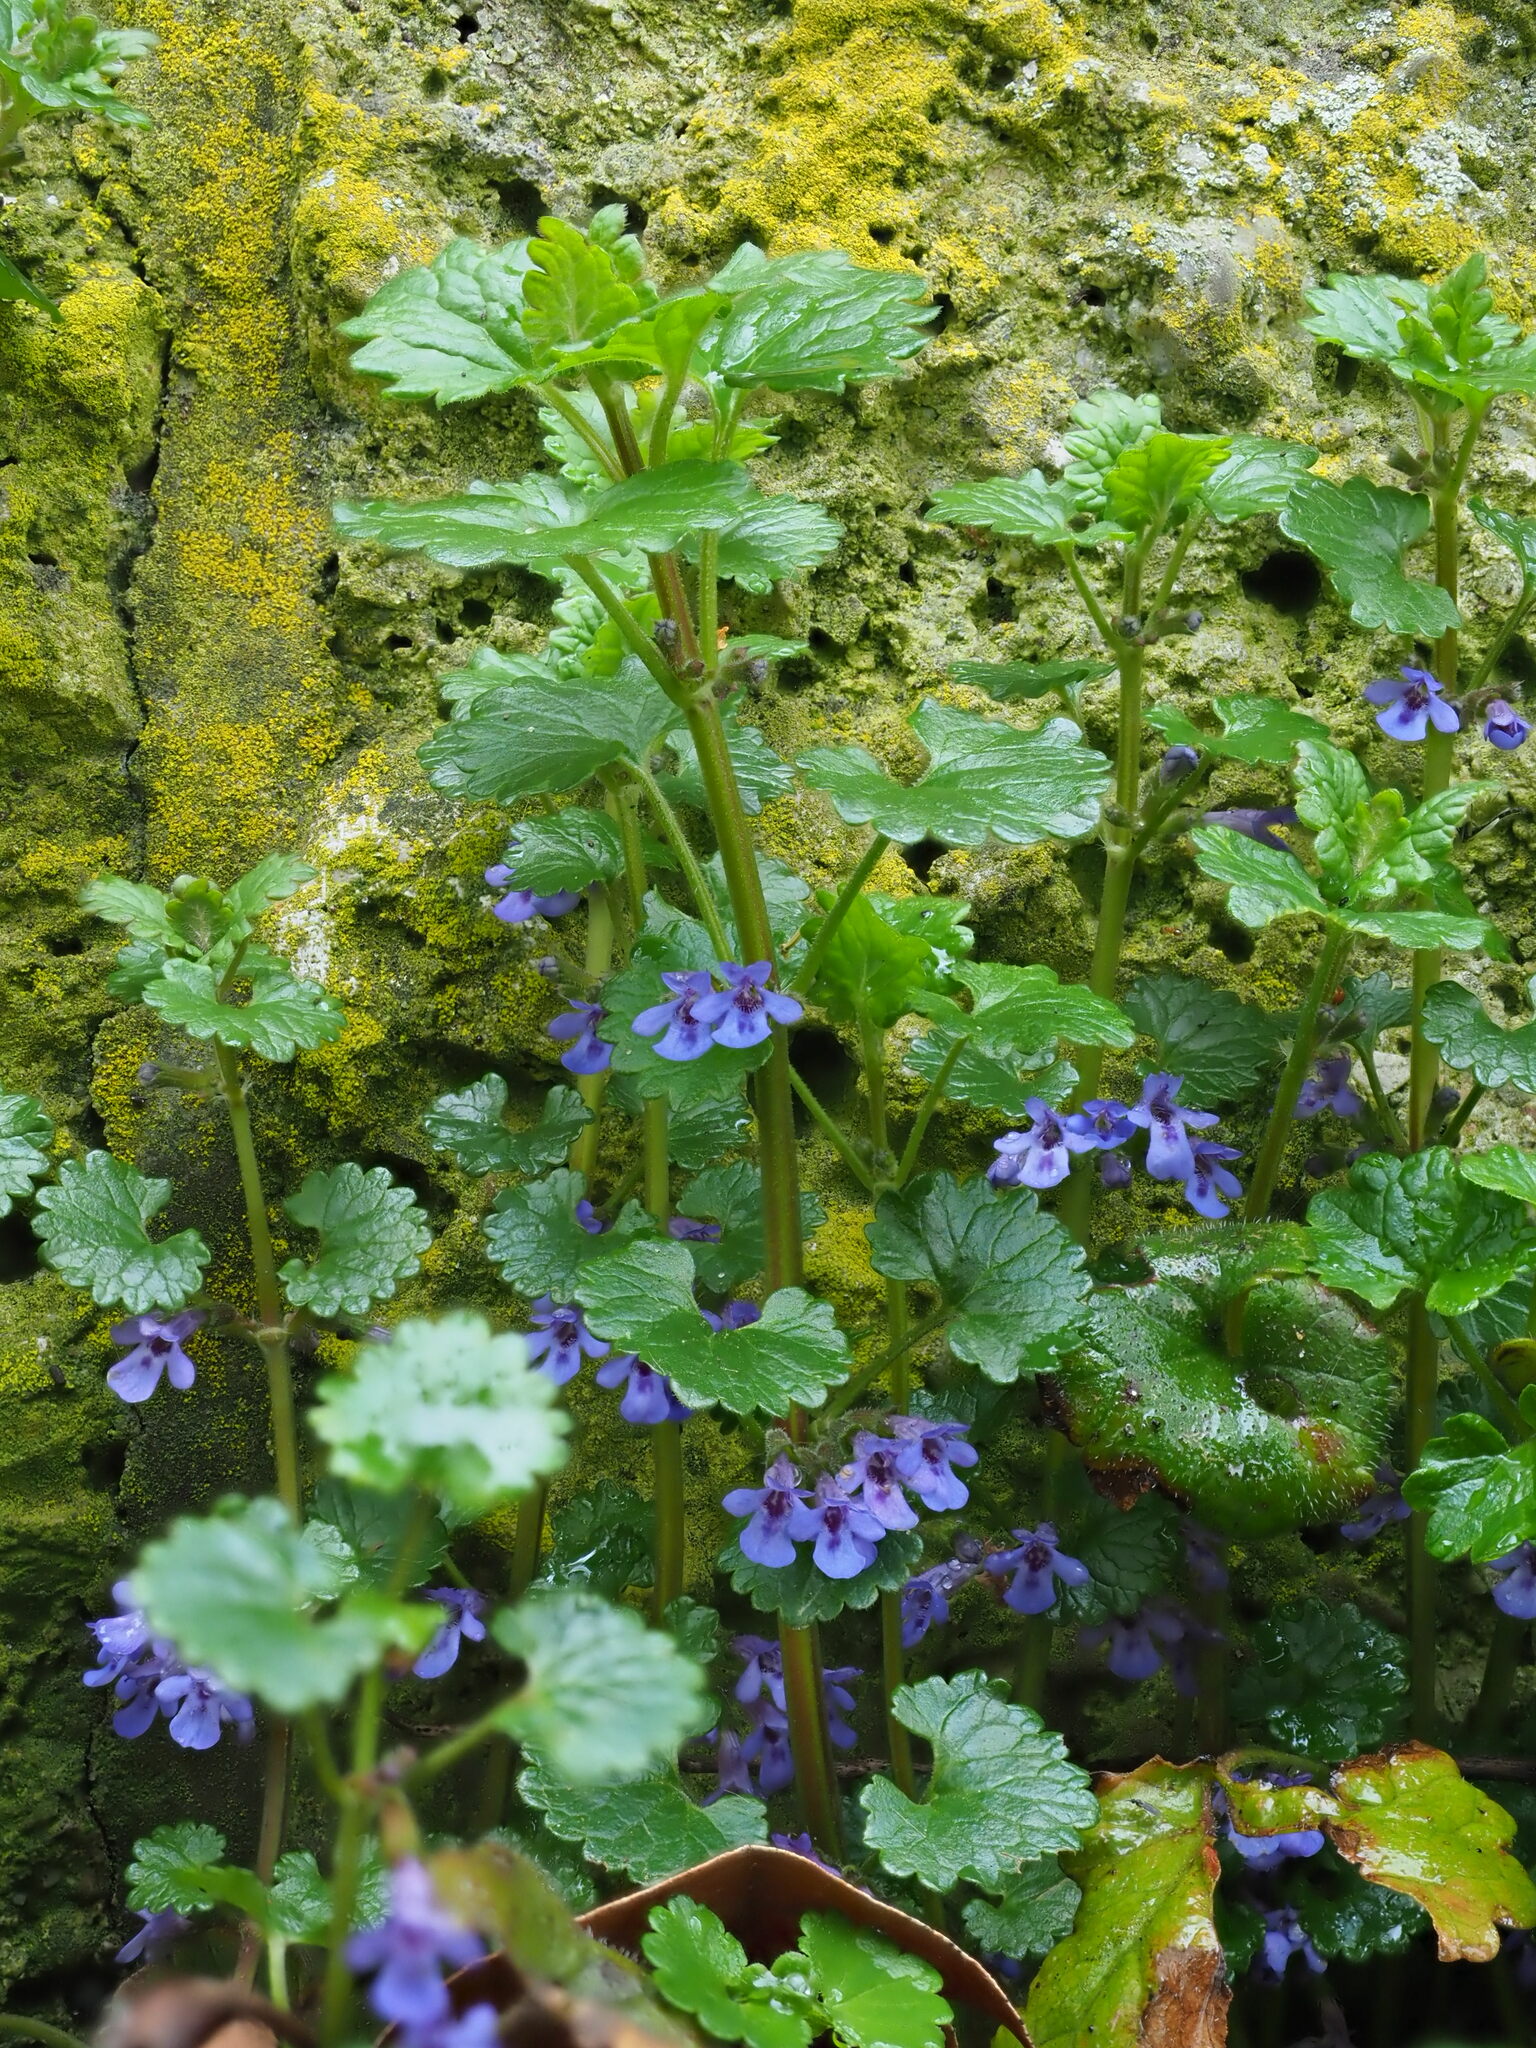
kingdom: Plantae
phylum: Tracheophyta
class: Magnoliopsida
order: Lamiales
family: Lamiaceae
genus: Glechoma
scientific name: Glechoma hederacea
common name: Ground ivy
